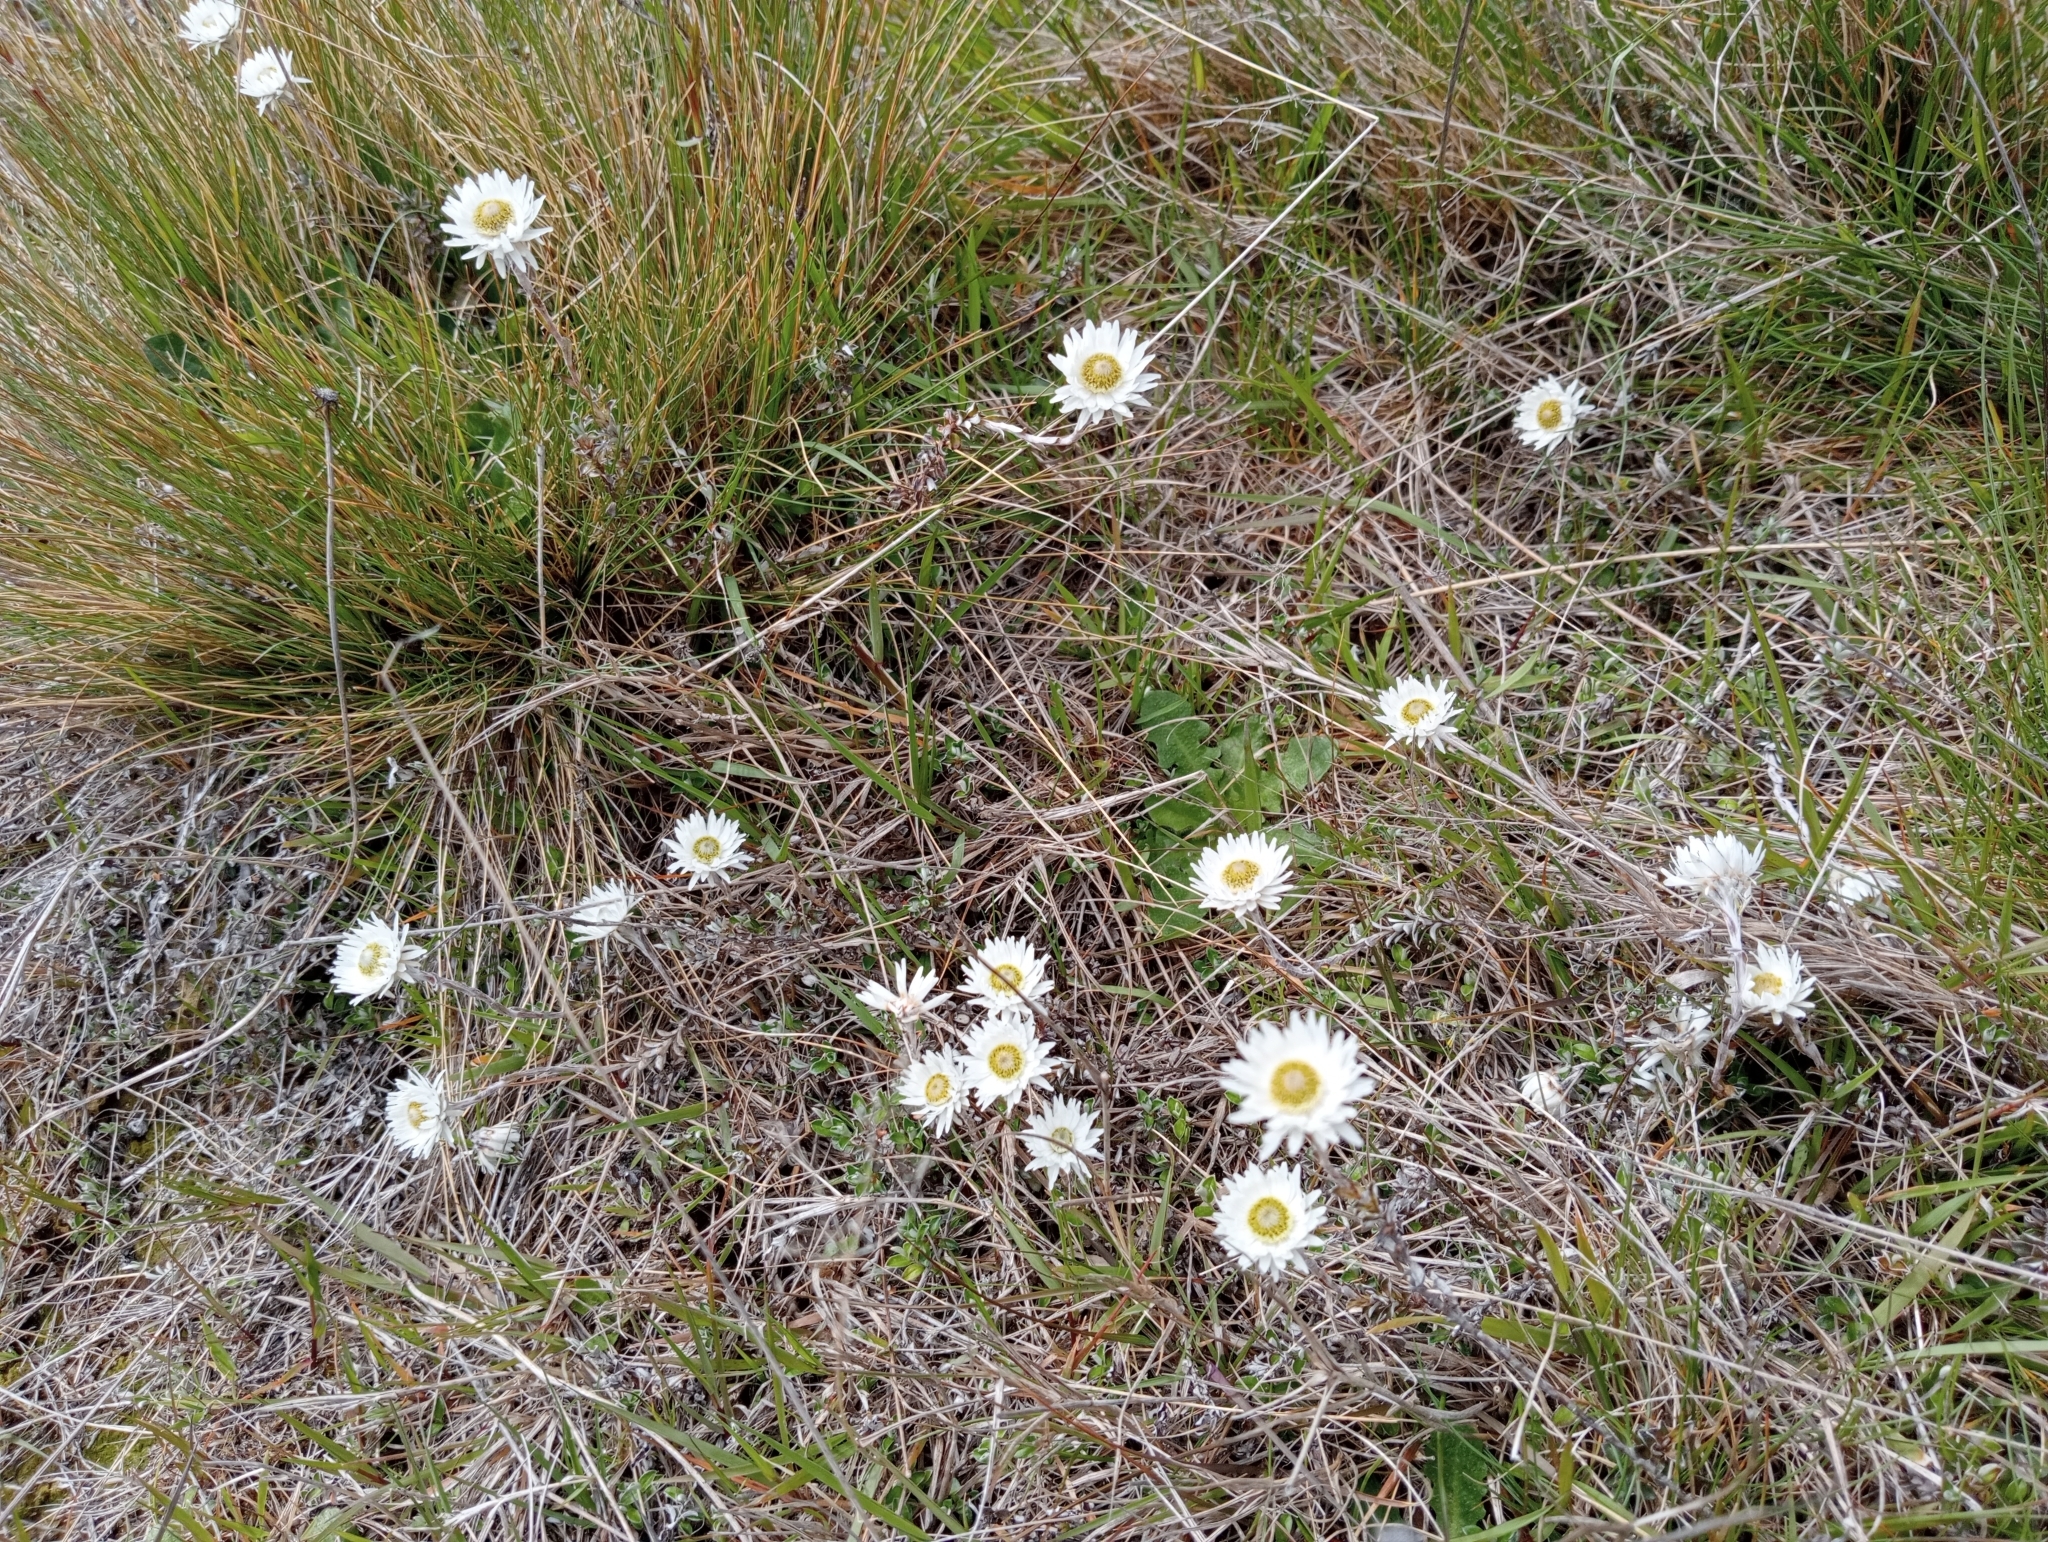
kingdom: Plantae
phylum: Tracheophyta
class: Magnoliopsida
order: Asterales
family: Asteraceae
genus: Anaphalioides
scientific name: Anaphalioides bellidioides
